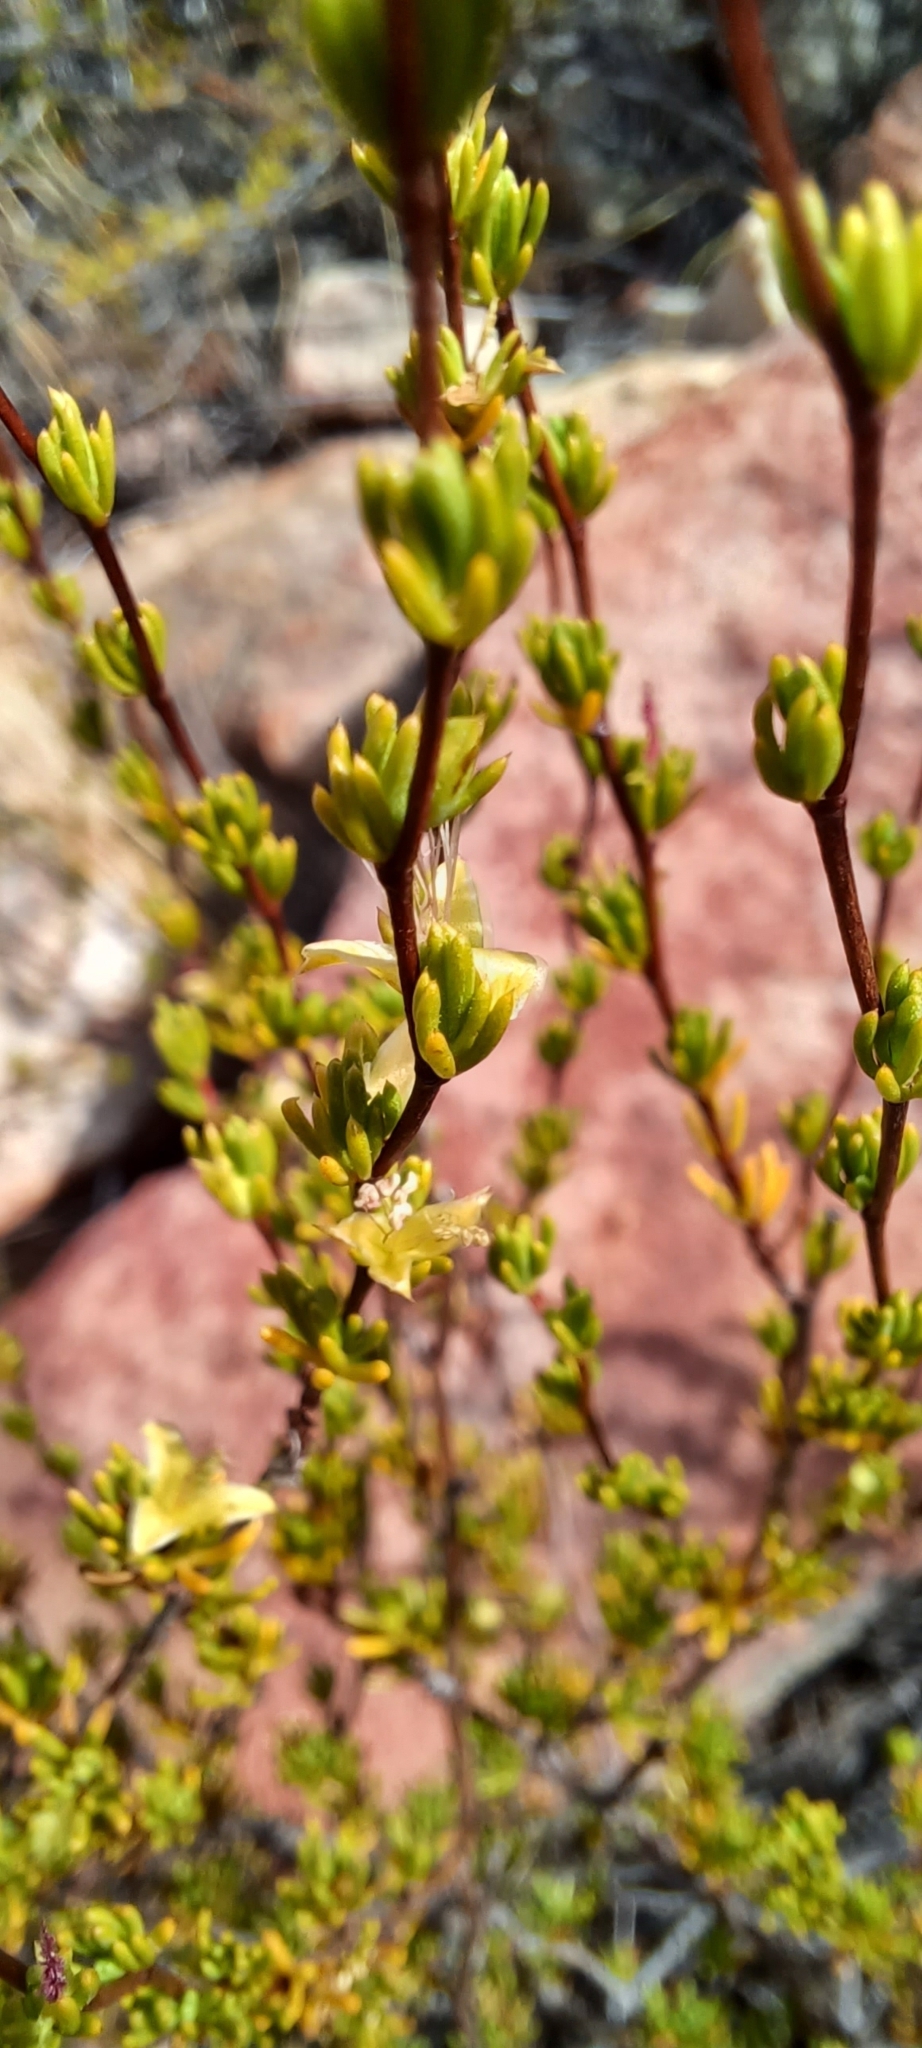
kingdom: Plantae
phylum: Tracheophyta
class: Magnoliopsida
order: Rosales
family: Rosaceae
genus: Cliffortia
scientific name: Cliffortia teretifolia
